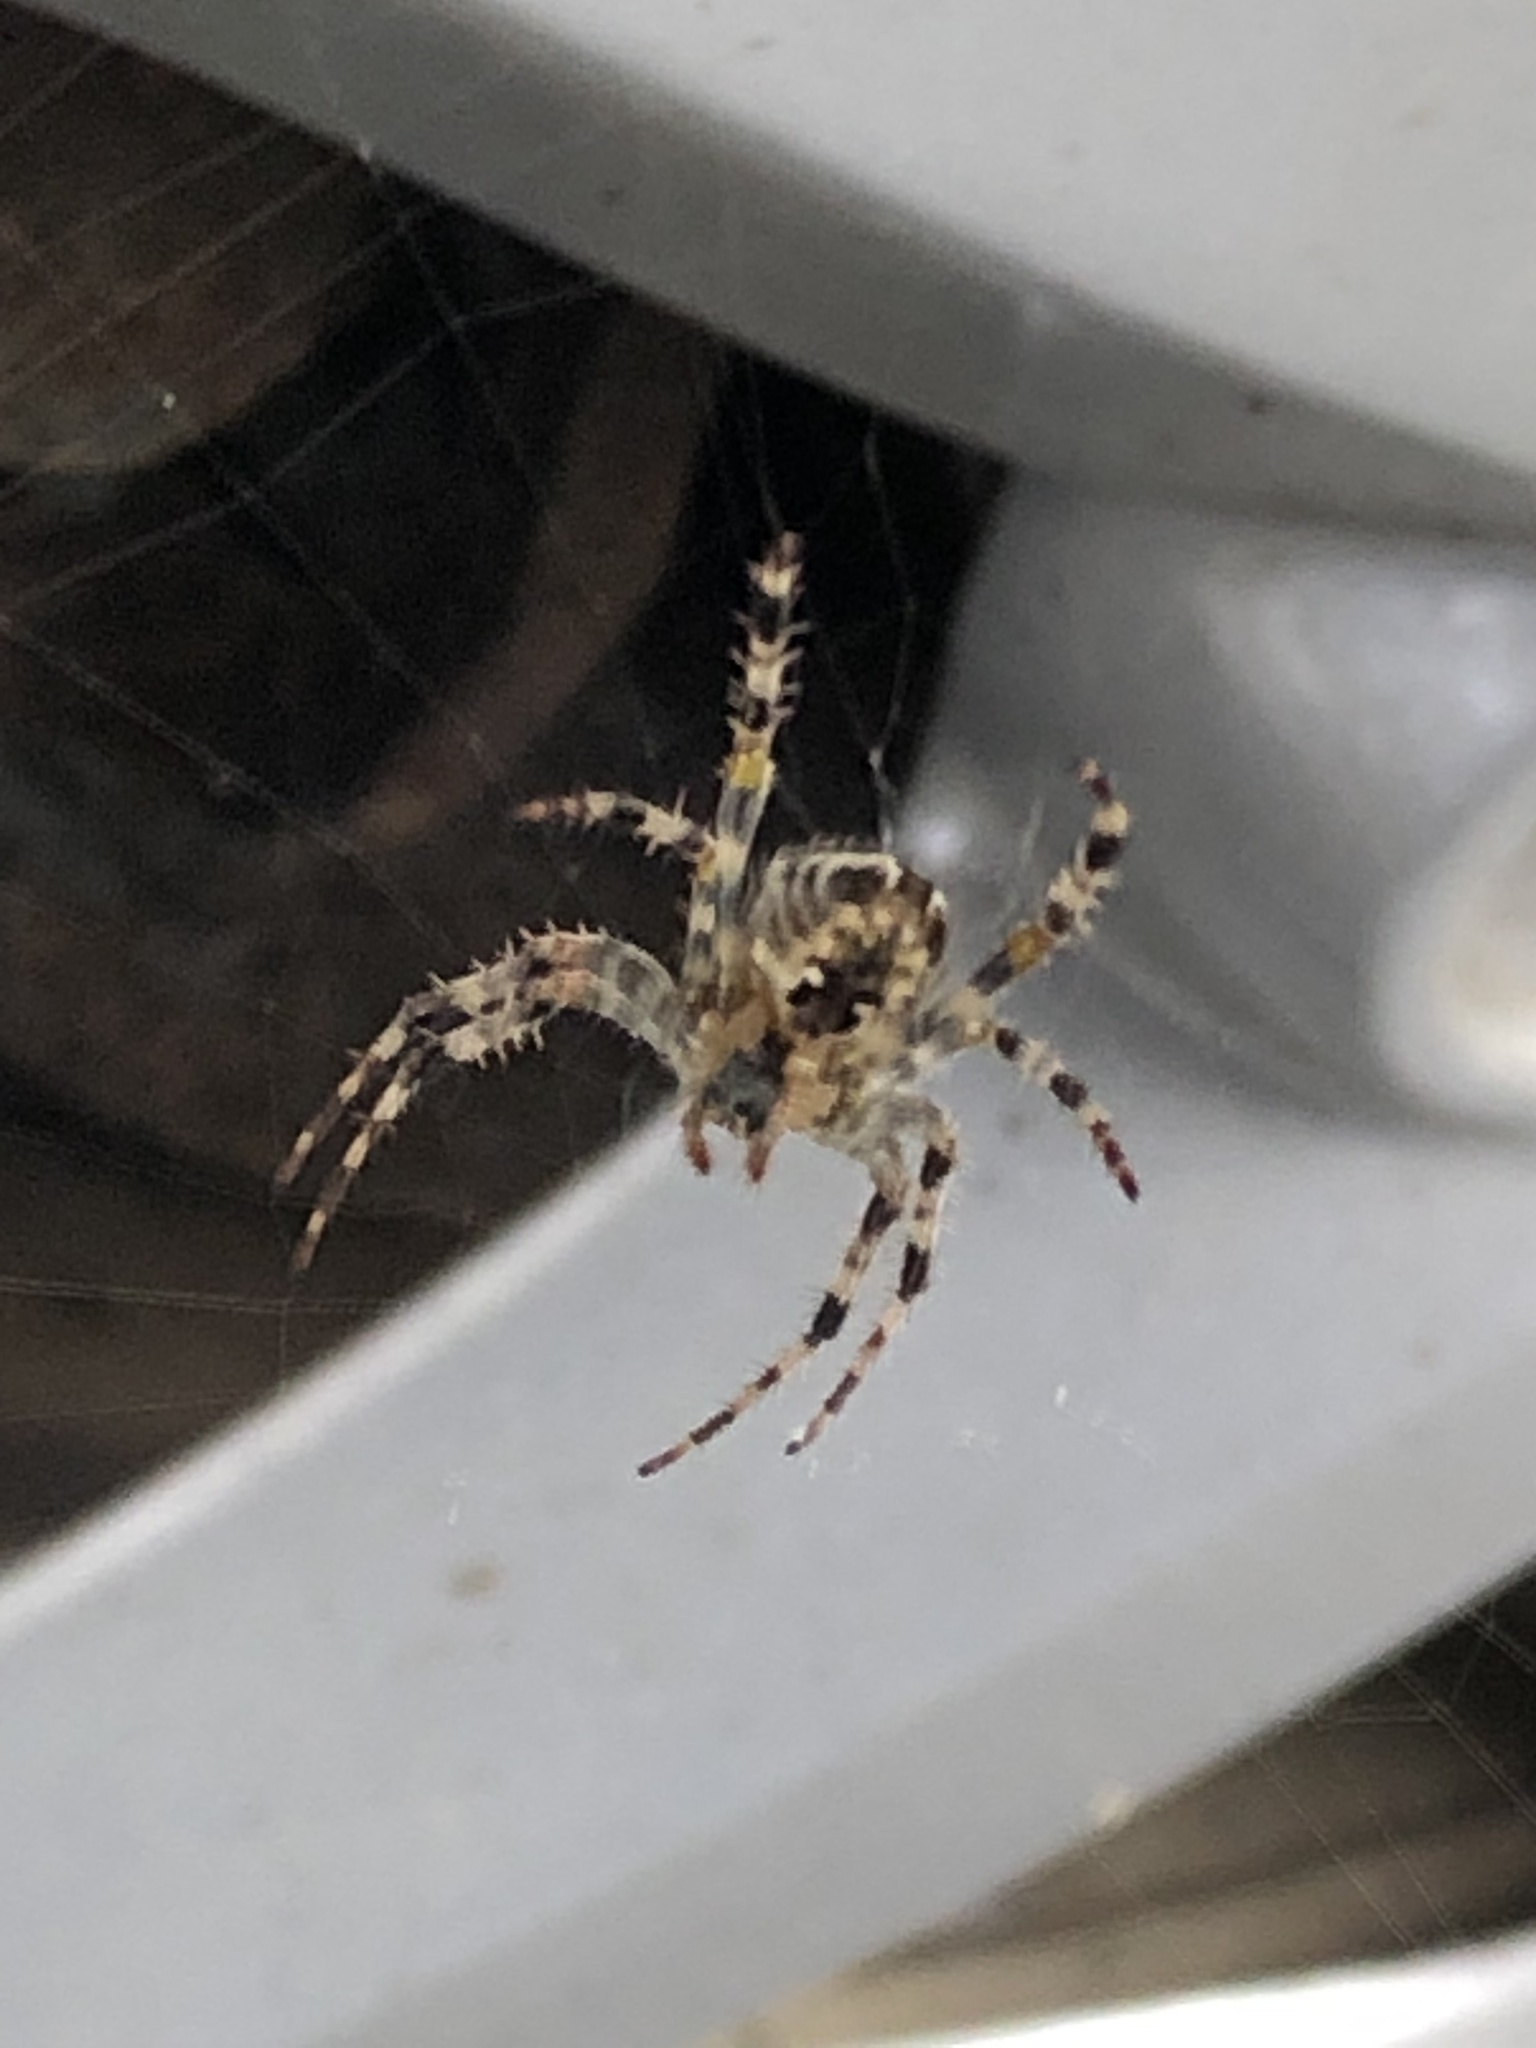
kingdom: Animalia
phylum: Arthropoda
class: Arachnida
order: Araneae
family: Araneidae
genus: Araneus
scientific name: Araneus diadematus
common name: Cross orbweaver
